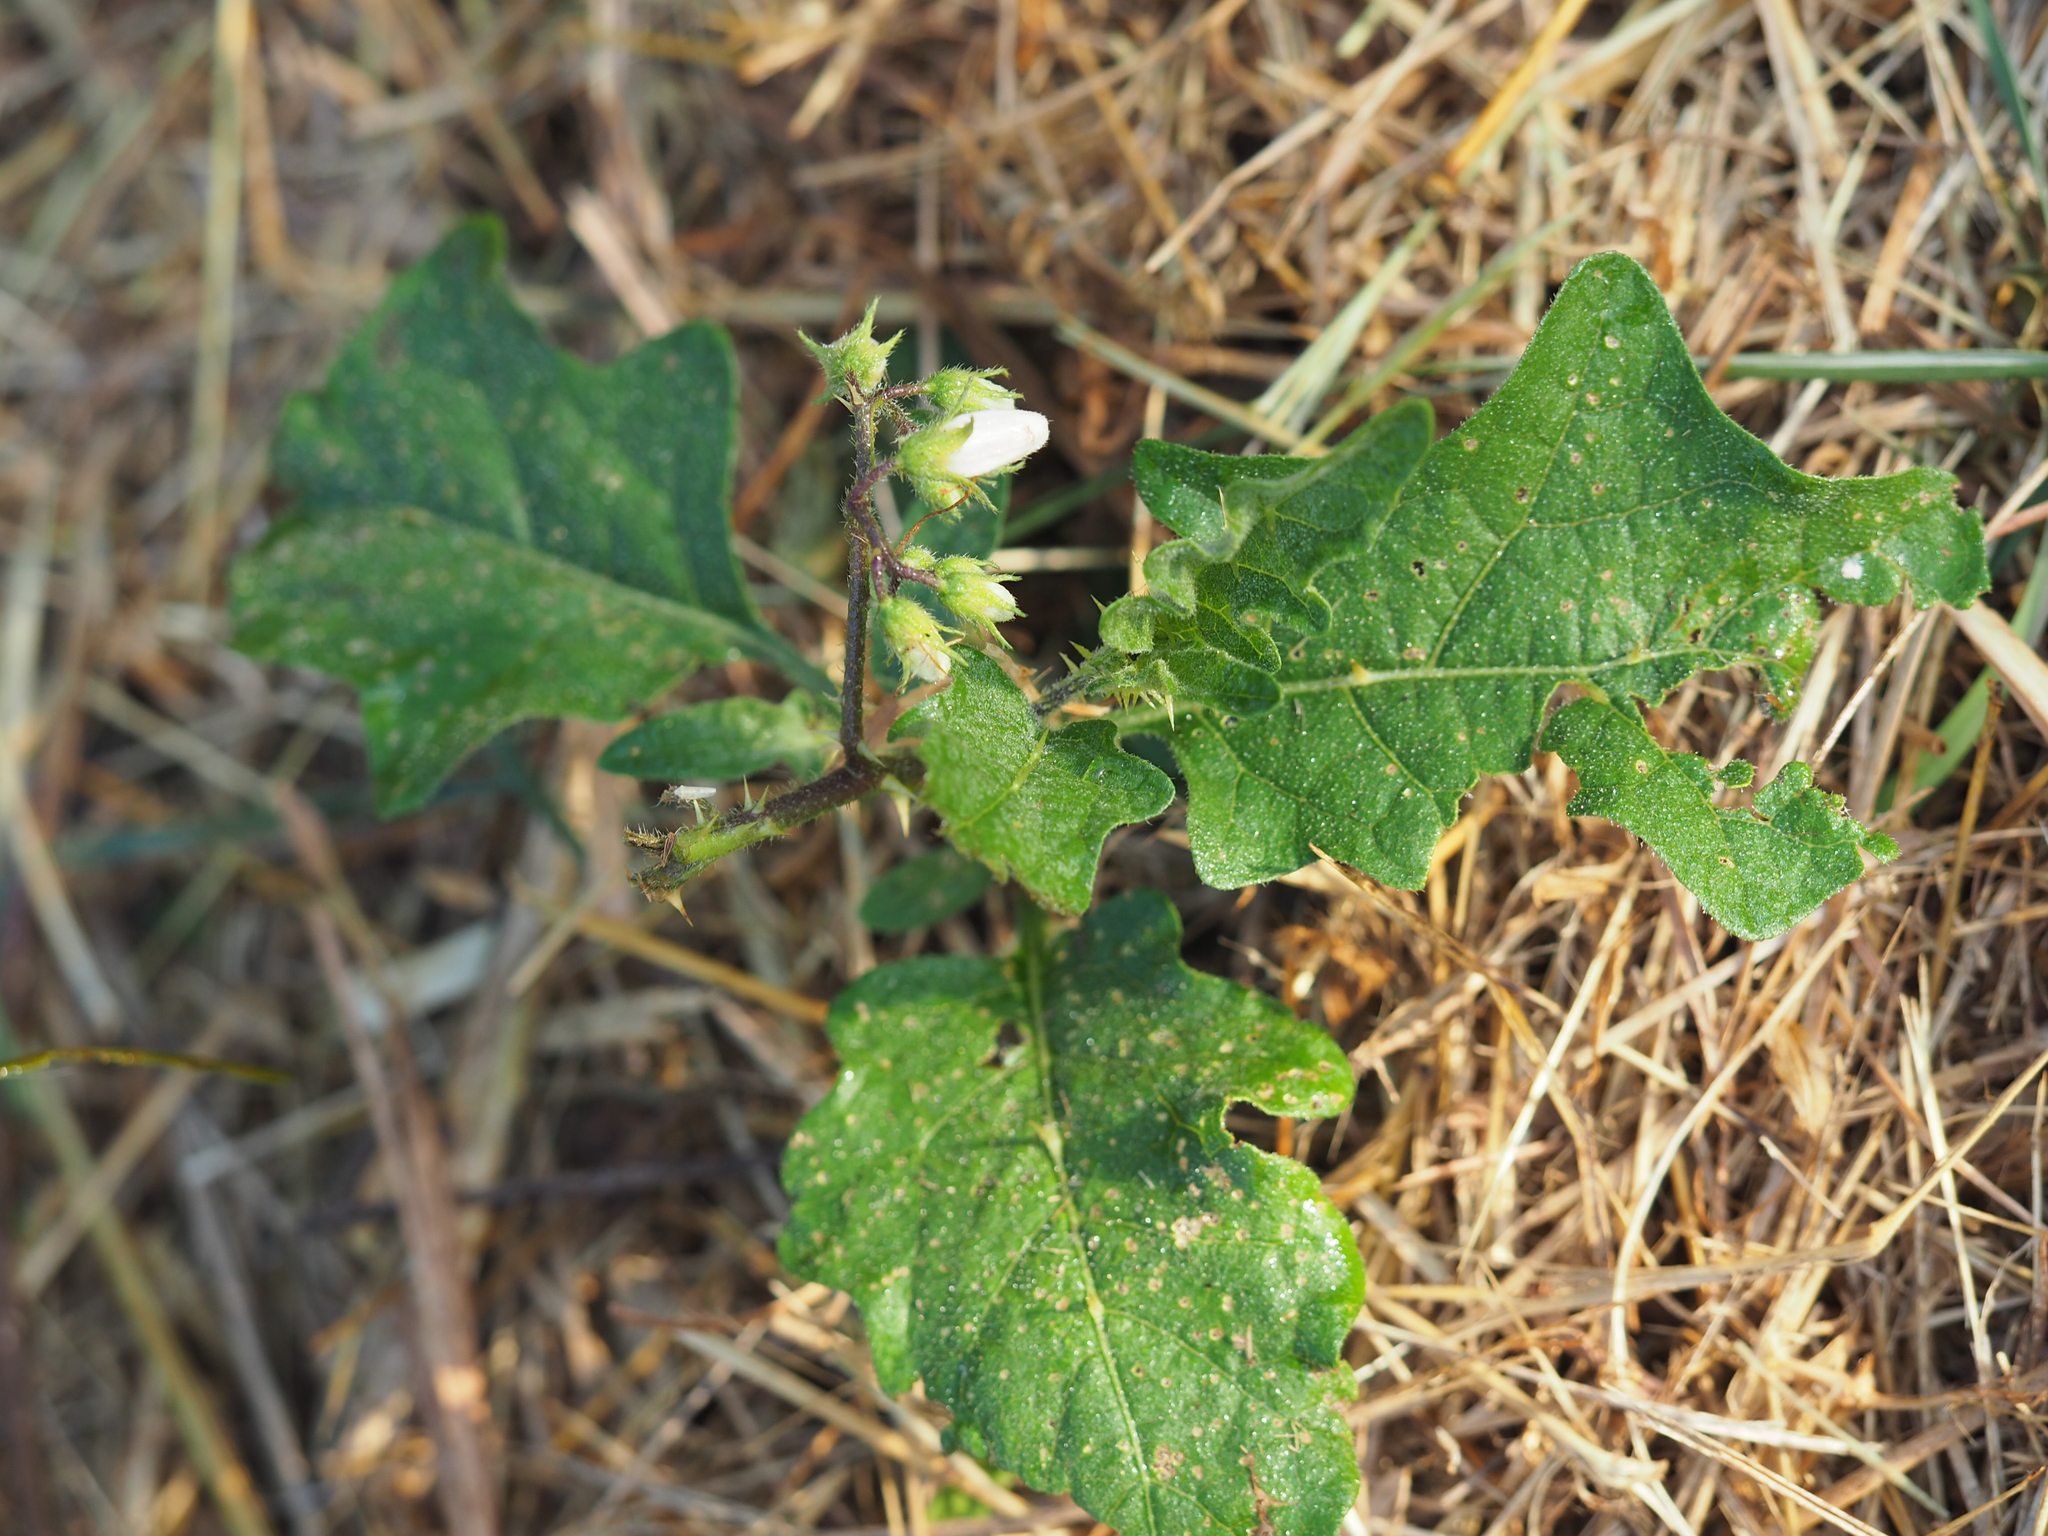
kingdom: Plantae
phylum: Tracheophyta
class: Magnoliopsida
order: Solanales
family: Solanaceae
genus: Solanum
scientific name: Solanum carolinense
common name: Horse-nettle
